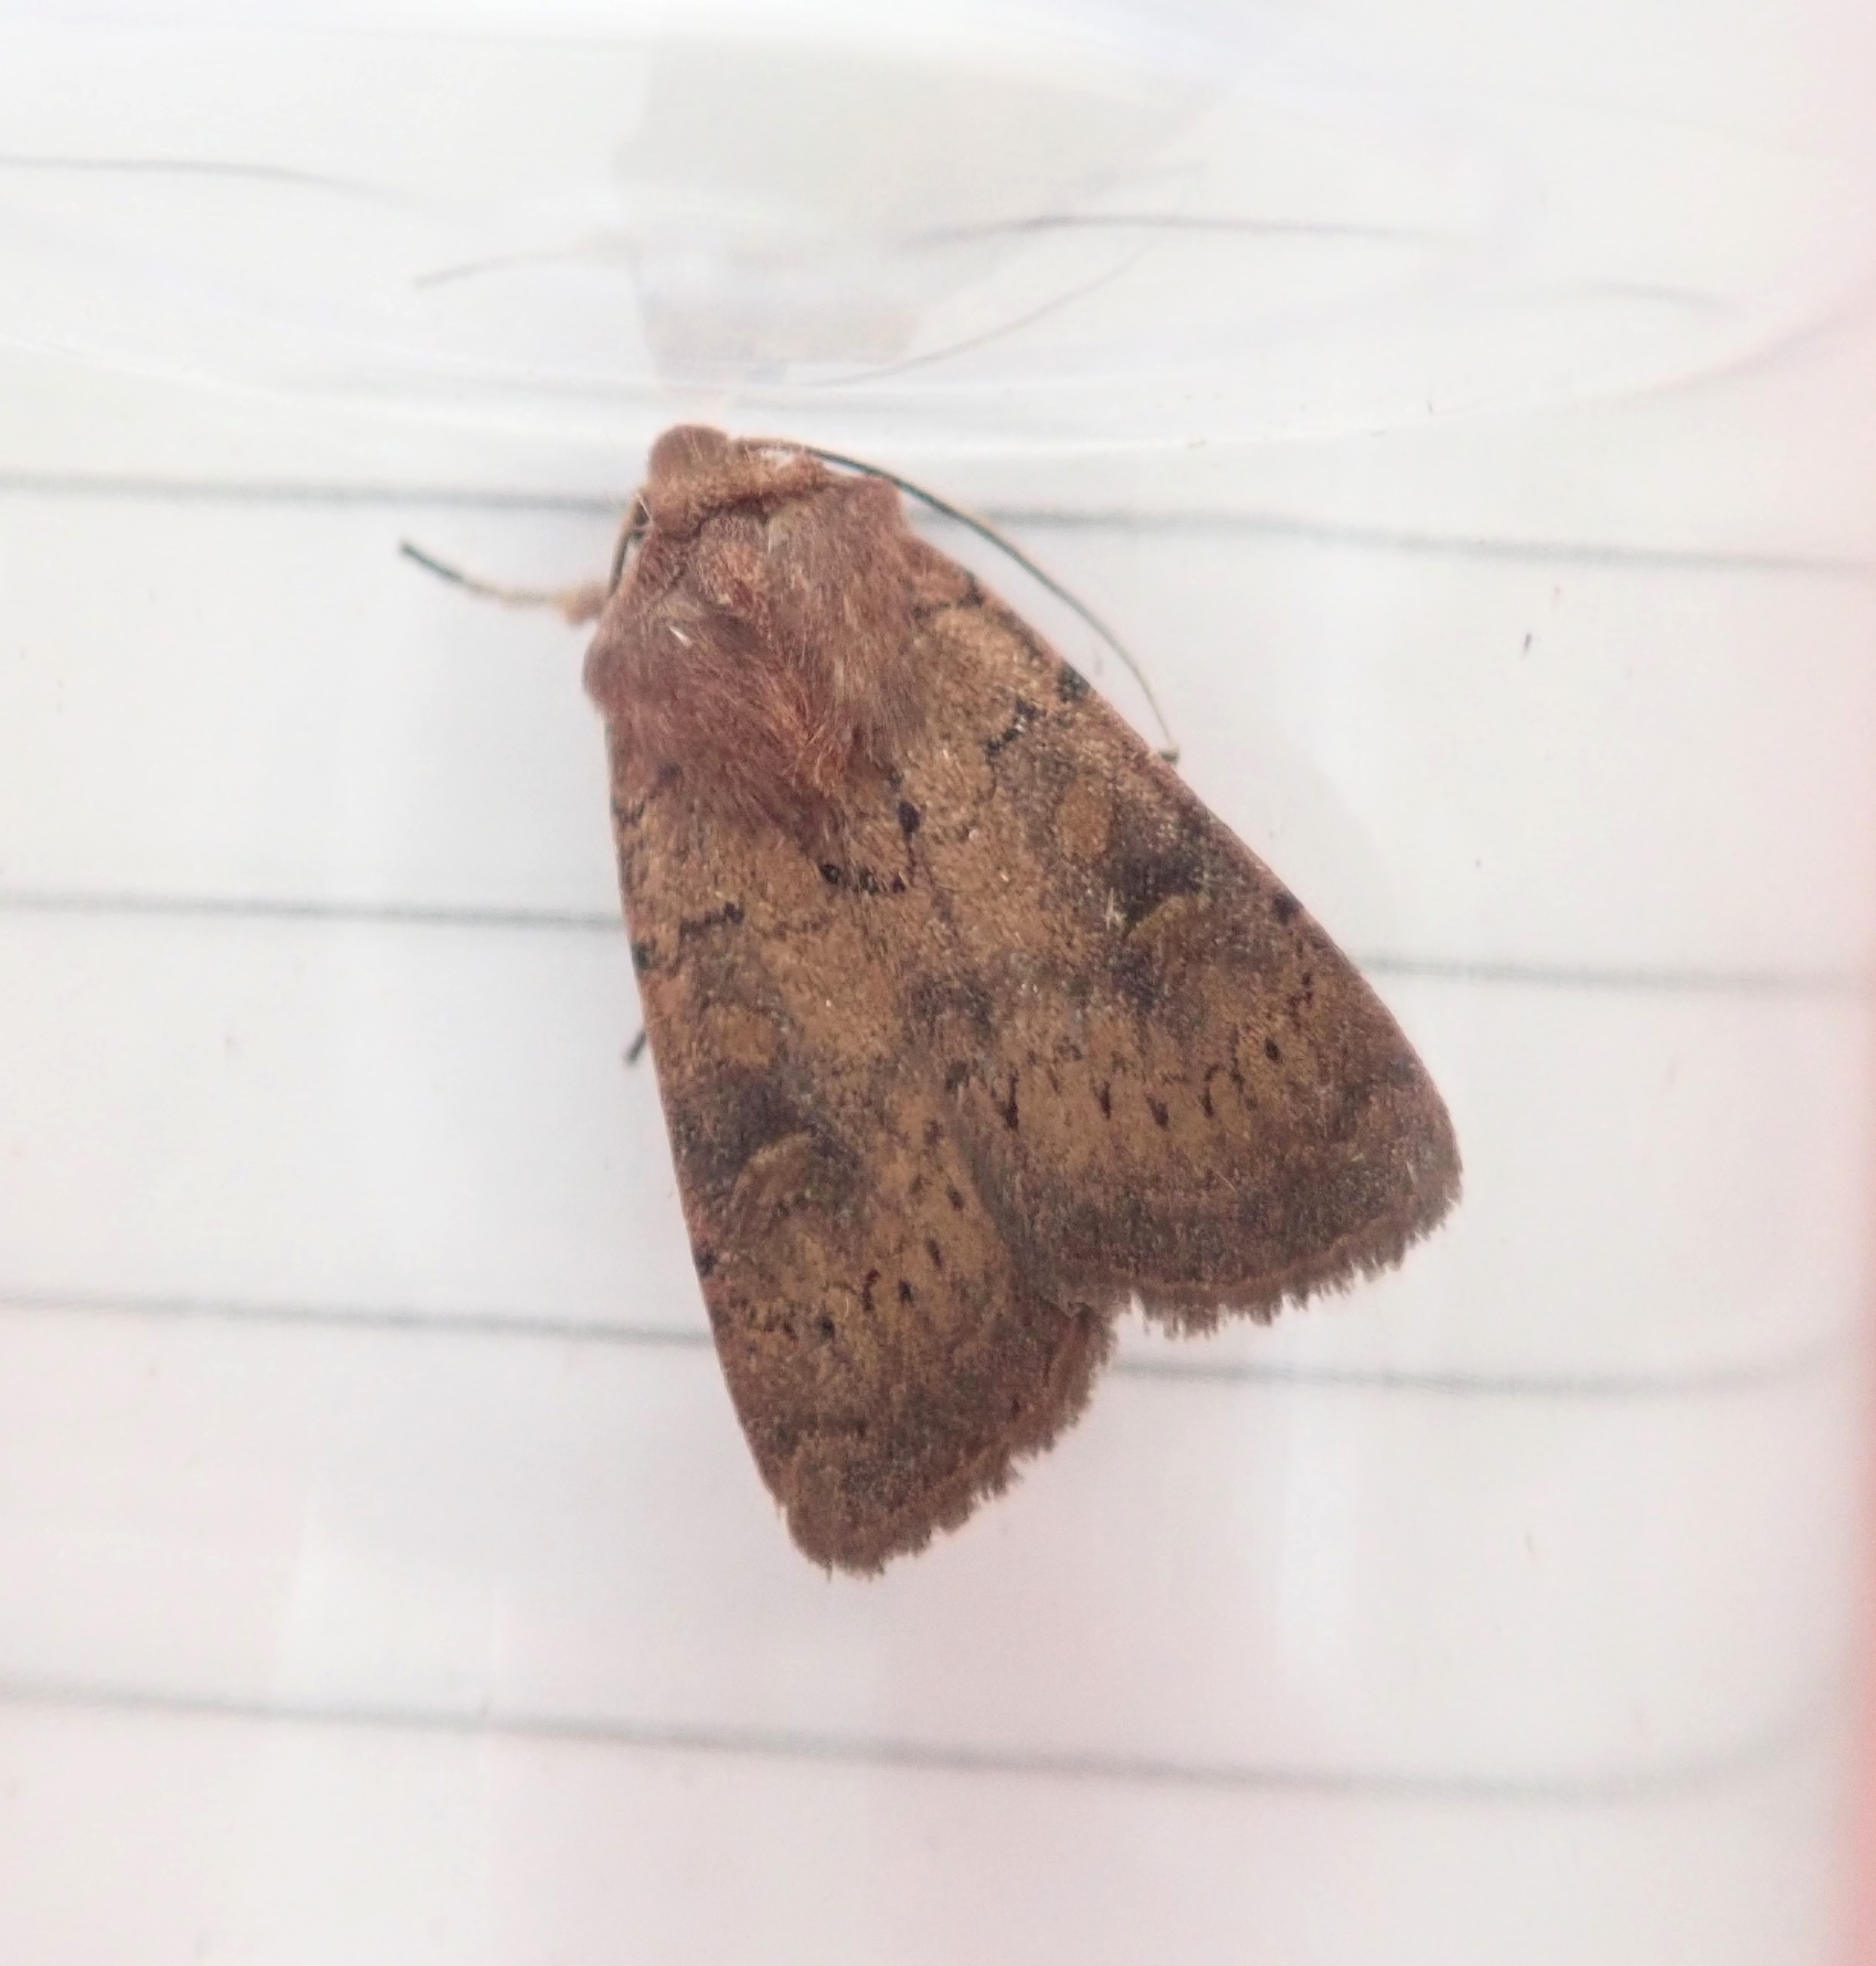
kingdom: Animalia
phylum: Arthropoda
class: Insecta
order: Lepidoptera
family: Noctuidae
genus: Xestia
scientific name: Xestia xanthographa
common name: Square-spot rustic
